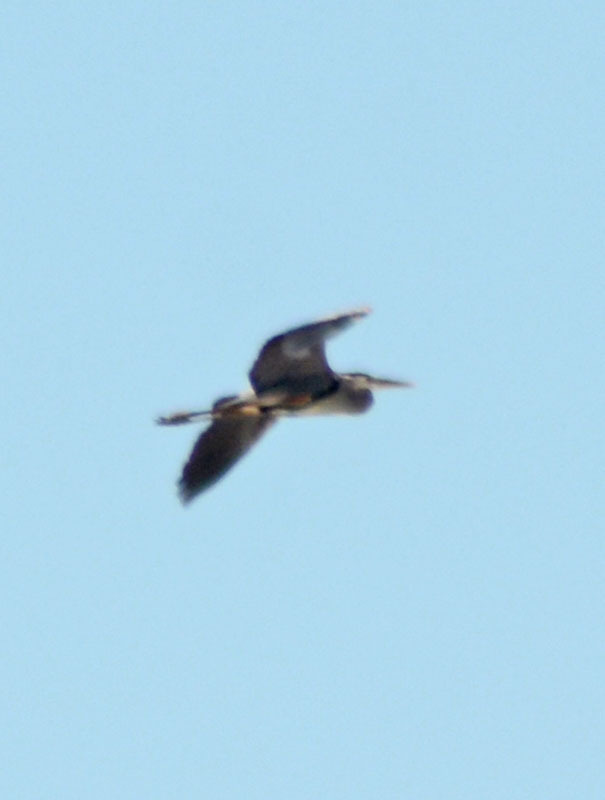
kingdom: Animalia
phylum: Chordata
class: Aves
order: Pelecaniformes
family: Ardeidae
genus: Ardea
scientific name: Ardea herodias
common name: Great blue heron
